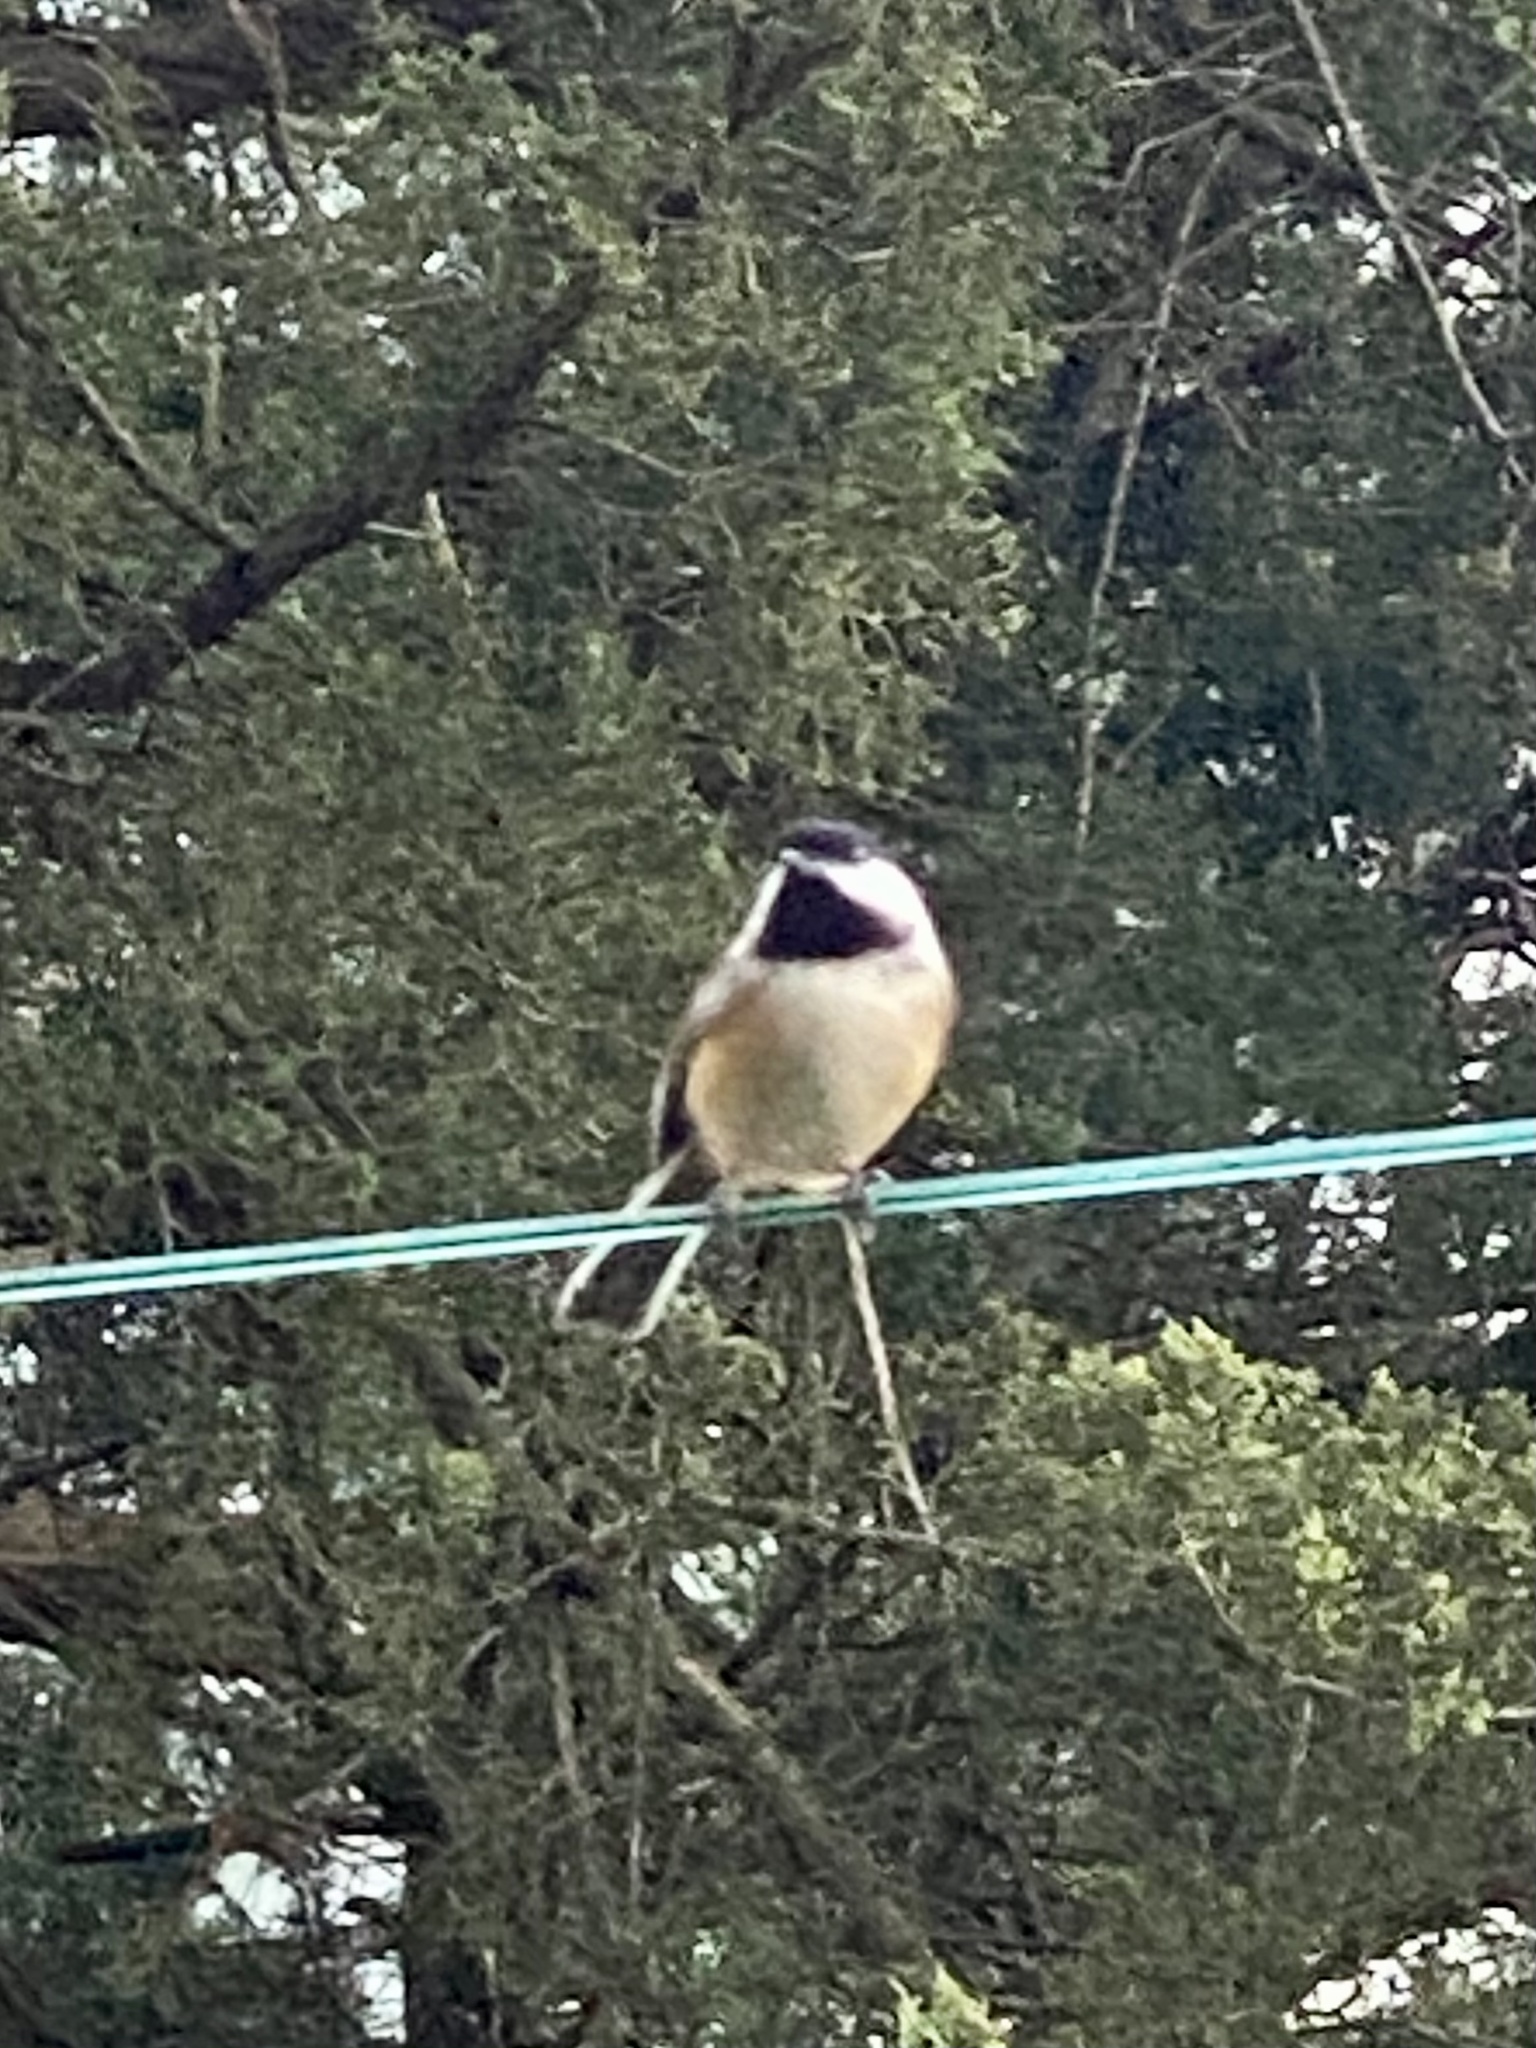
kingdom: Animalia
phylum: Chordata
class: Aves
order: Passeriformes
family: Paridae
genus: Poecile
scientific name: Poecile atricapillus
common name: Black-capped chickadee
